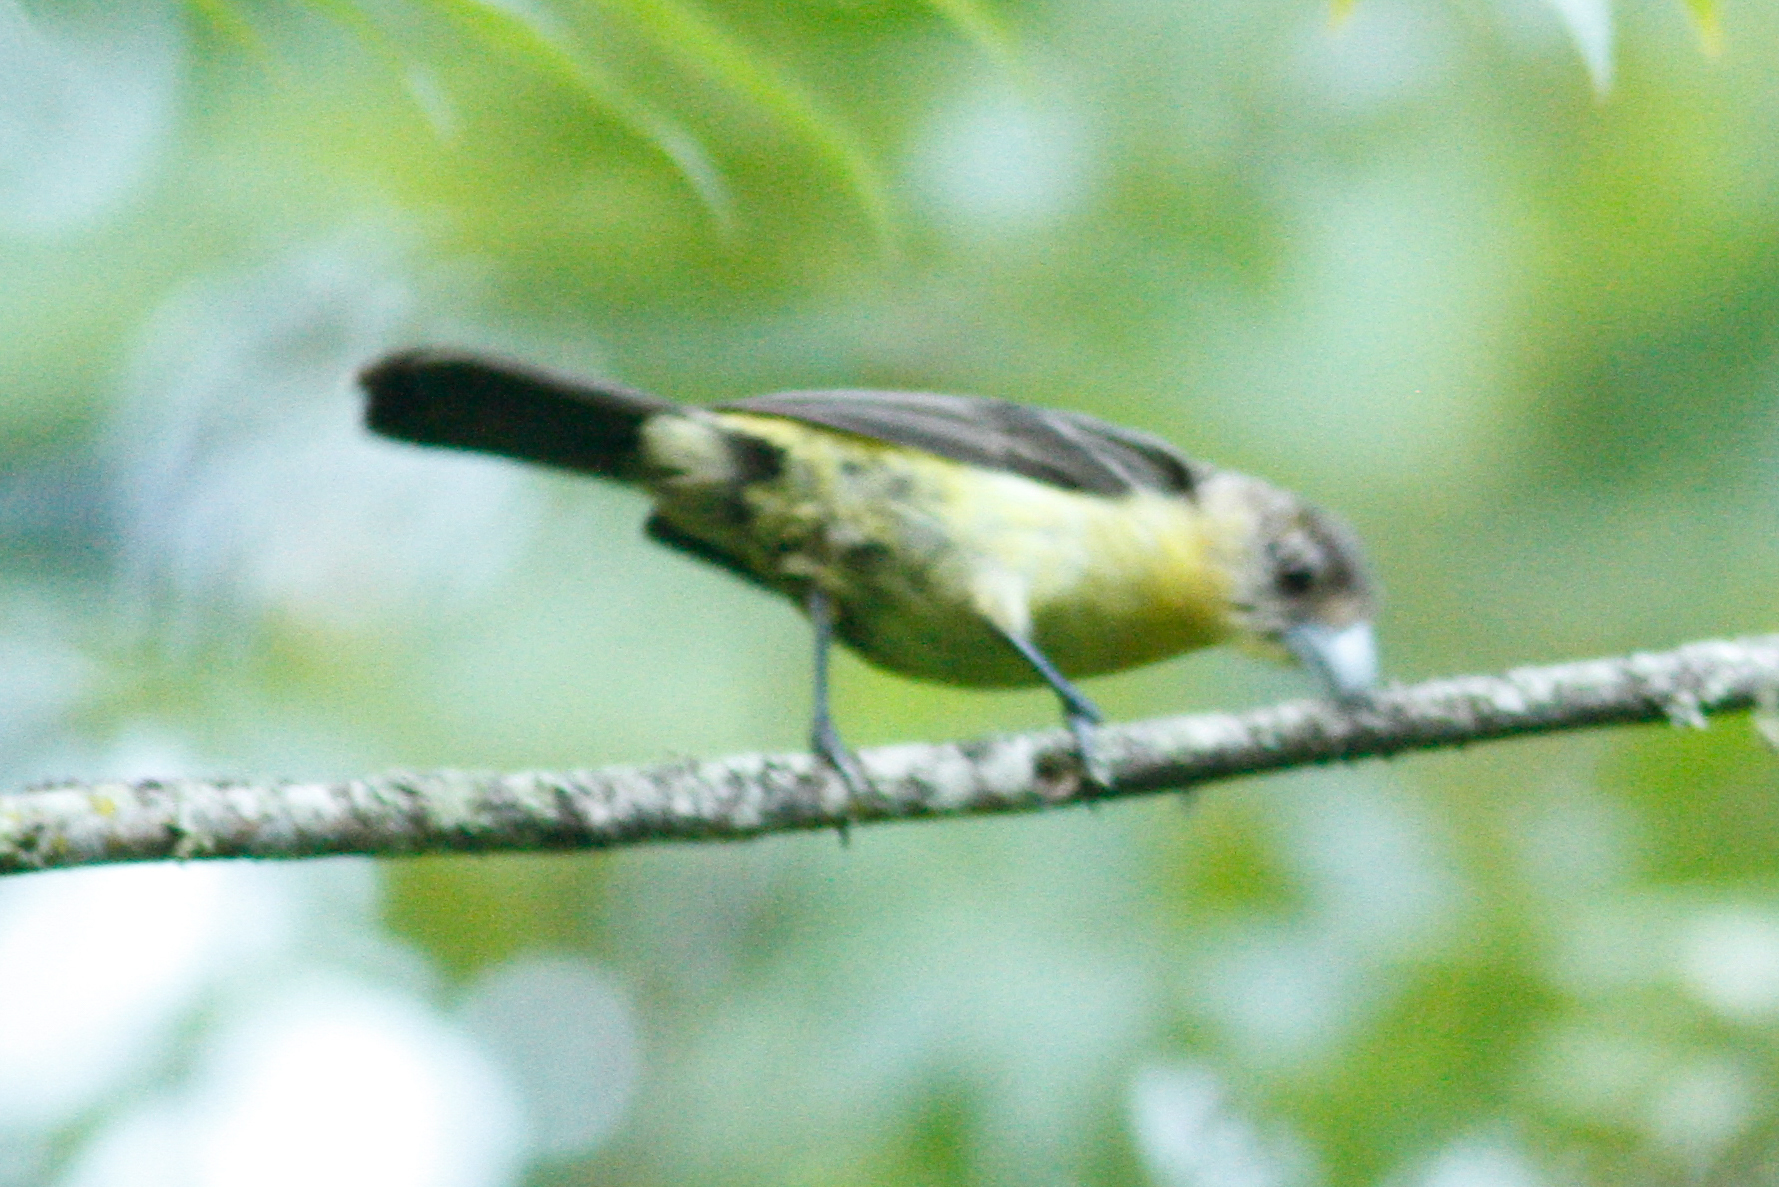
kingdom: Animalia
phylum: Chordata
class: Aves
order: Passeriformes
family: Thraupidae
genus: Ramphocelus
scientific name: Ramphocelus icteronotus
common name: Lemon-rumped tanager
